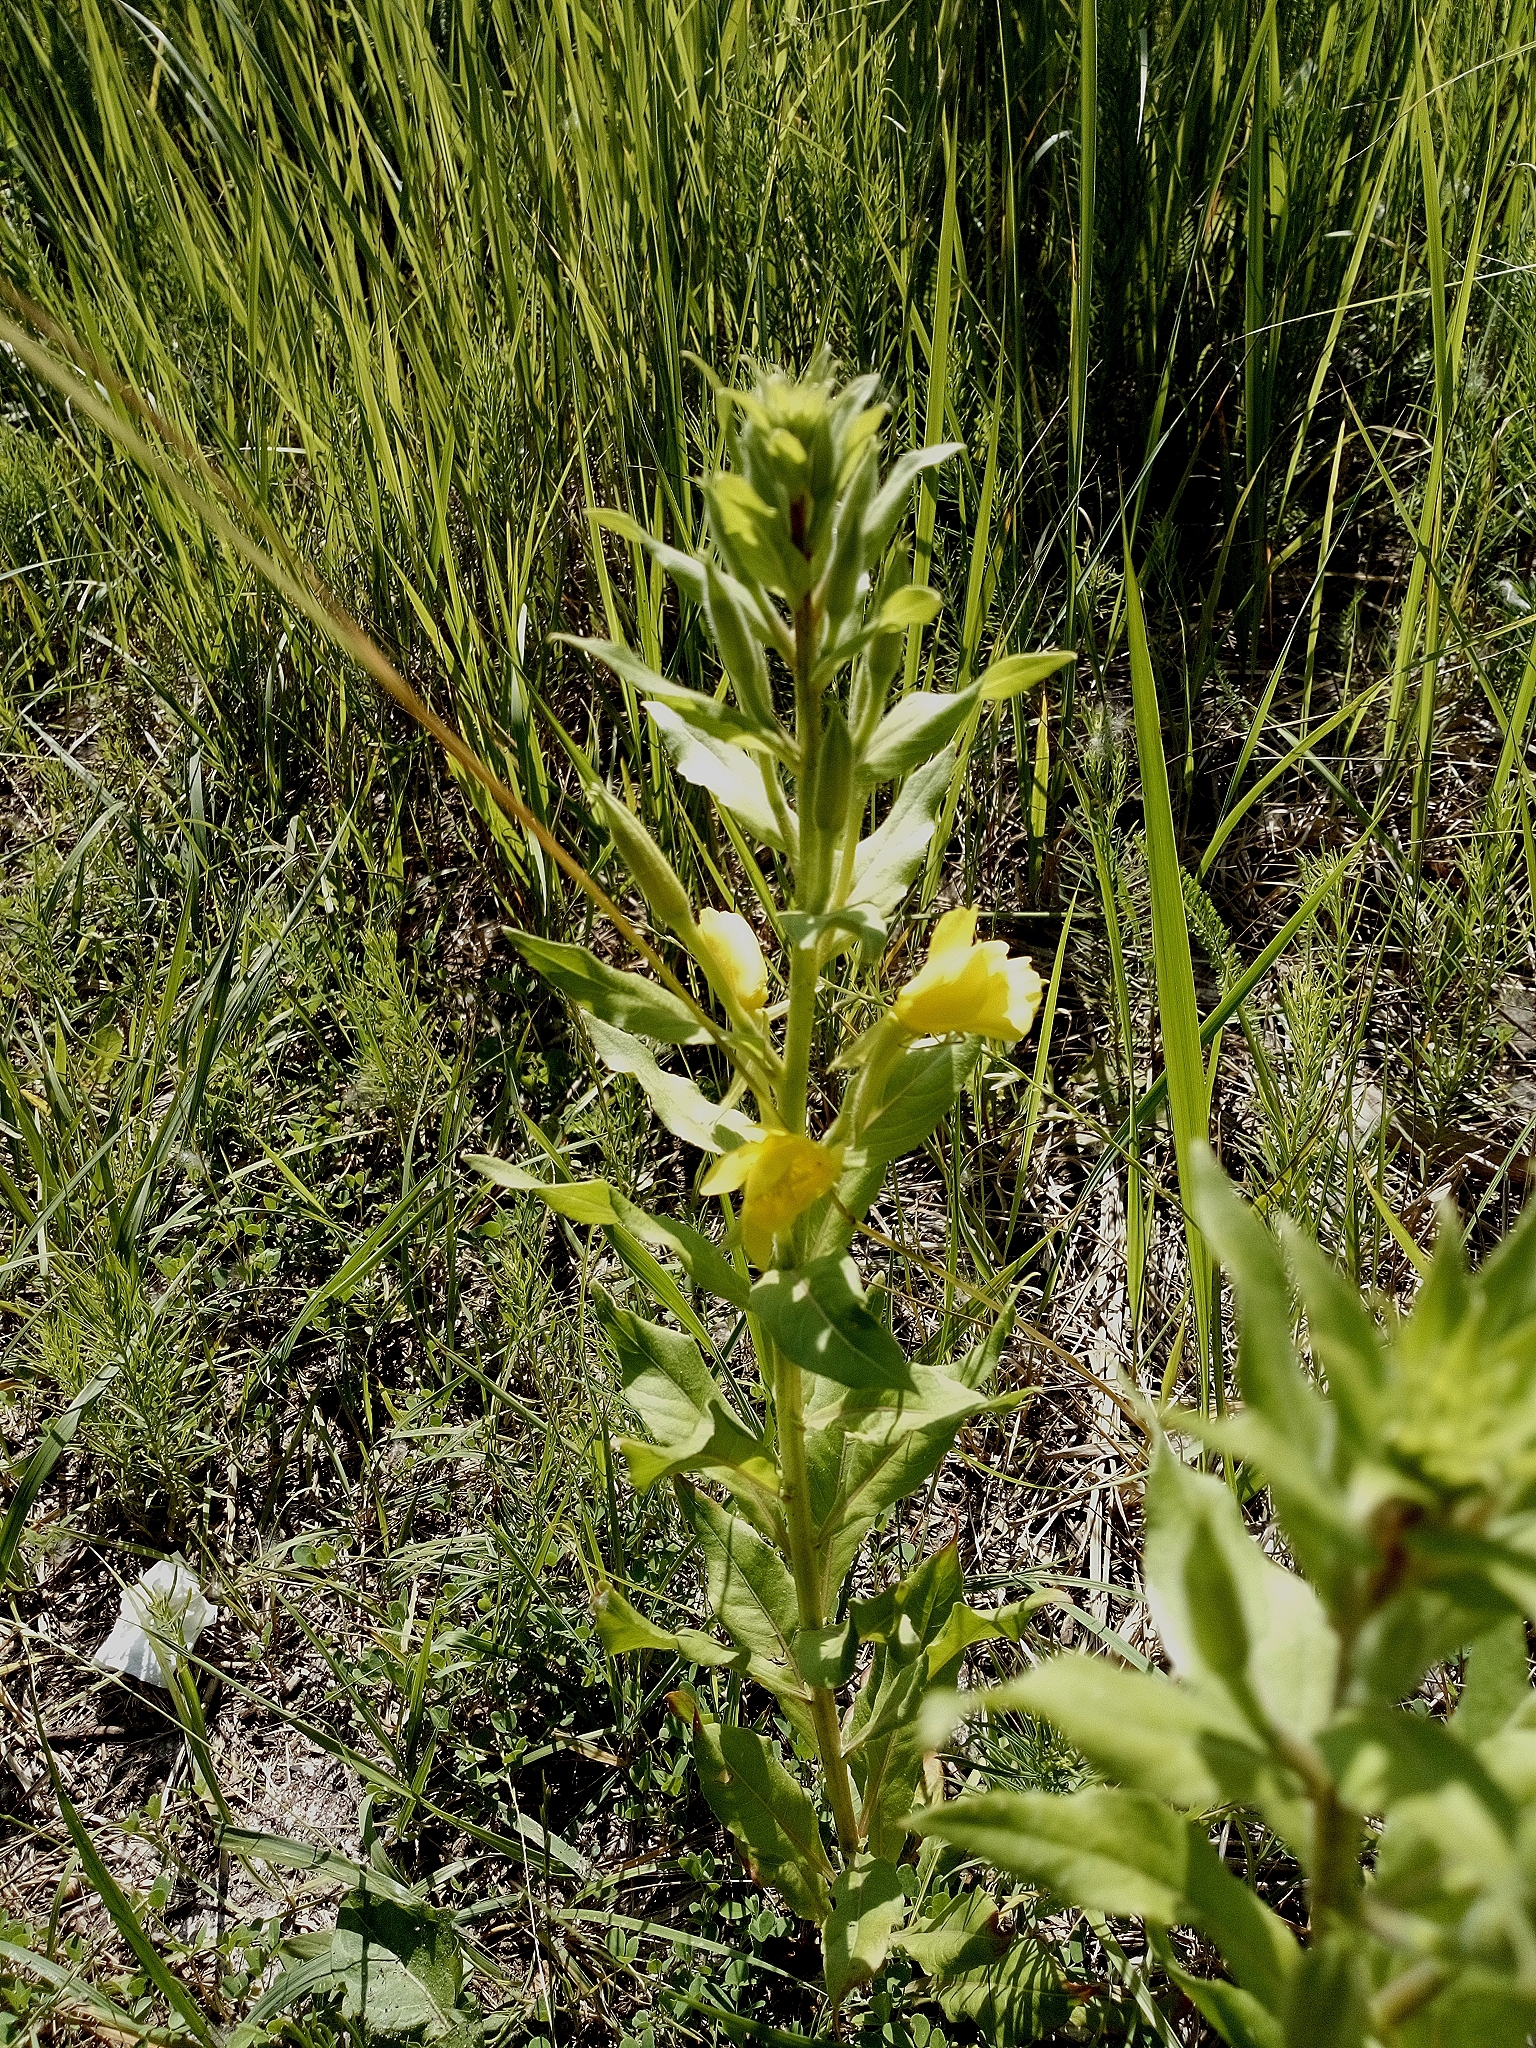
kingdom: Plantae
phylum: Tracheophyta
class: Magnoliopsida
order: Myrtales
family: Onagraceae
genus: Oenothera
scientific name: Oenothera biennis
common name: Common evening-primrose
